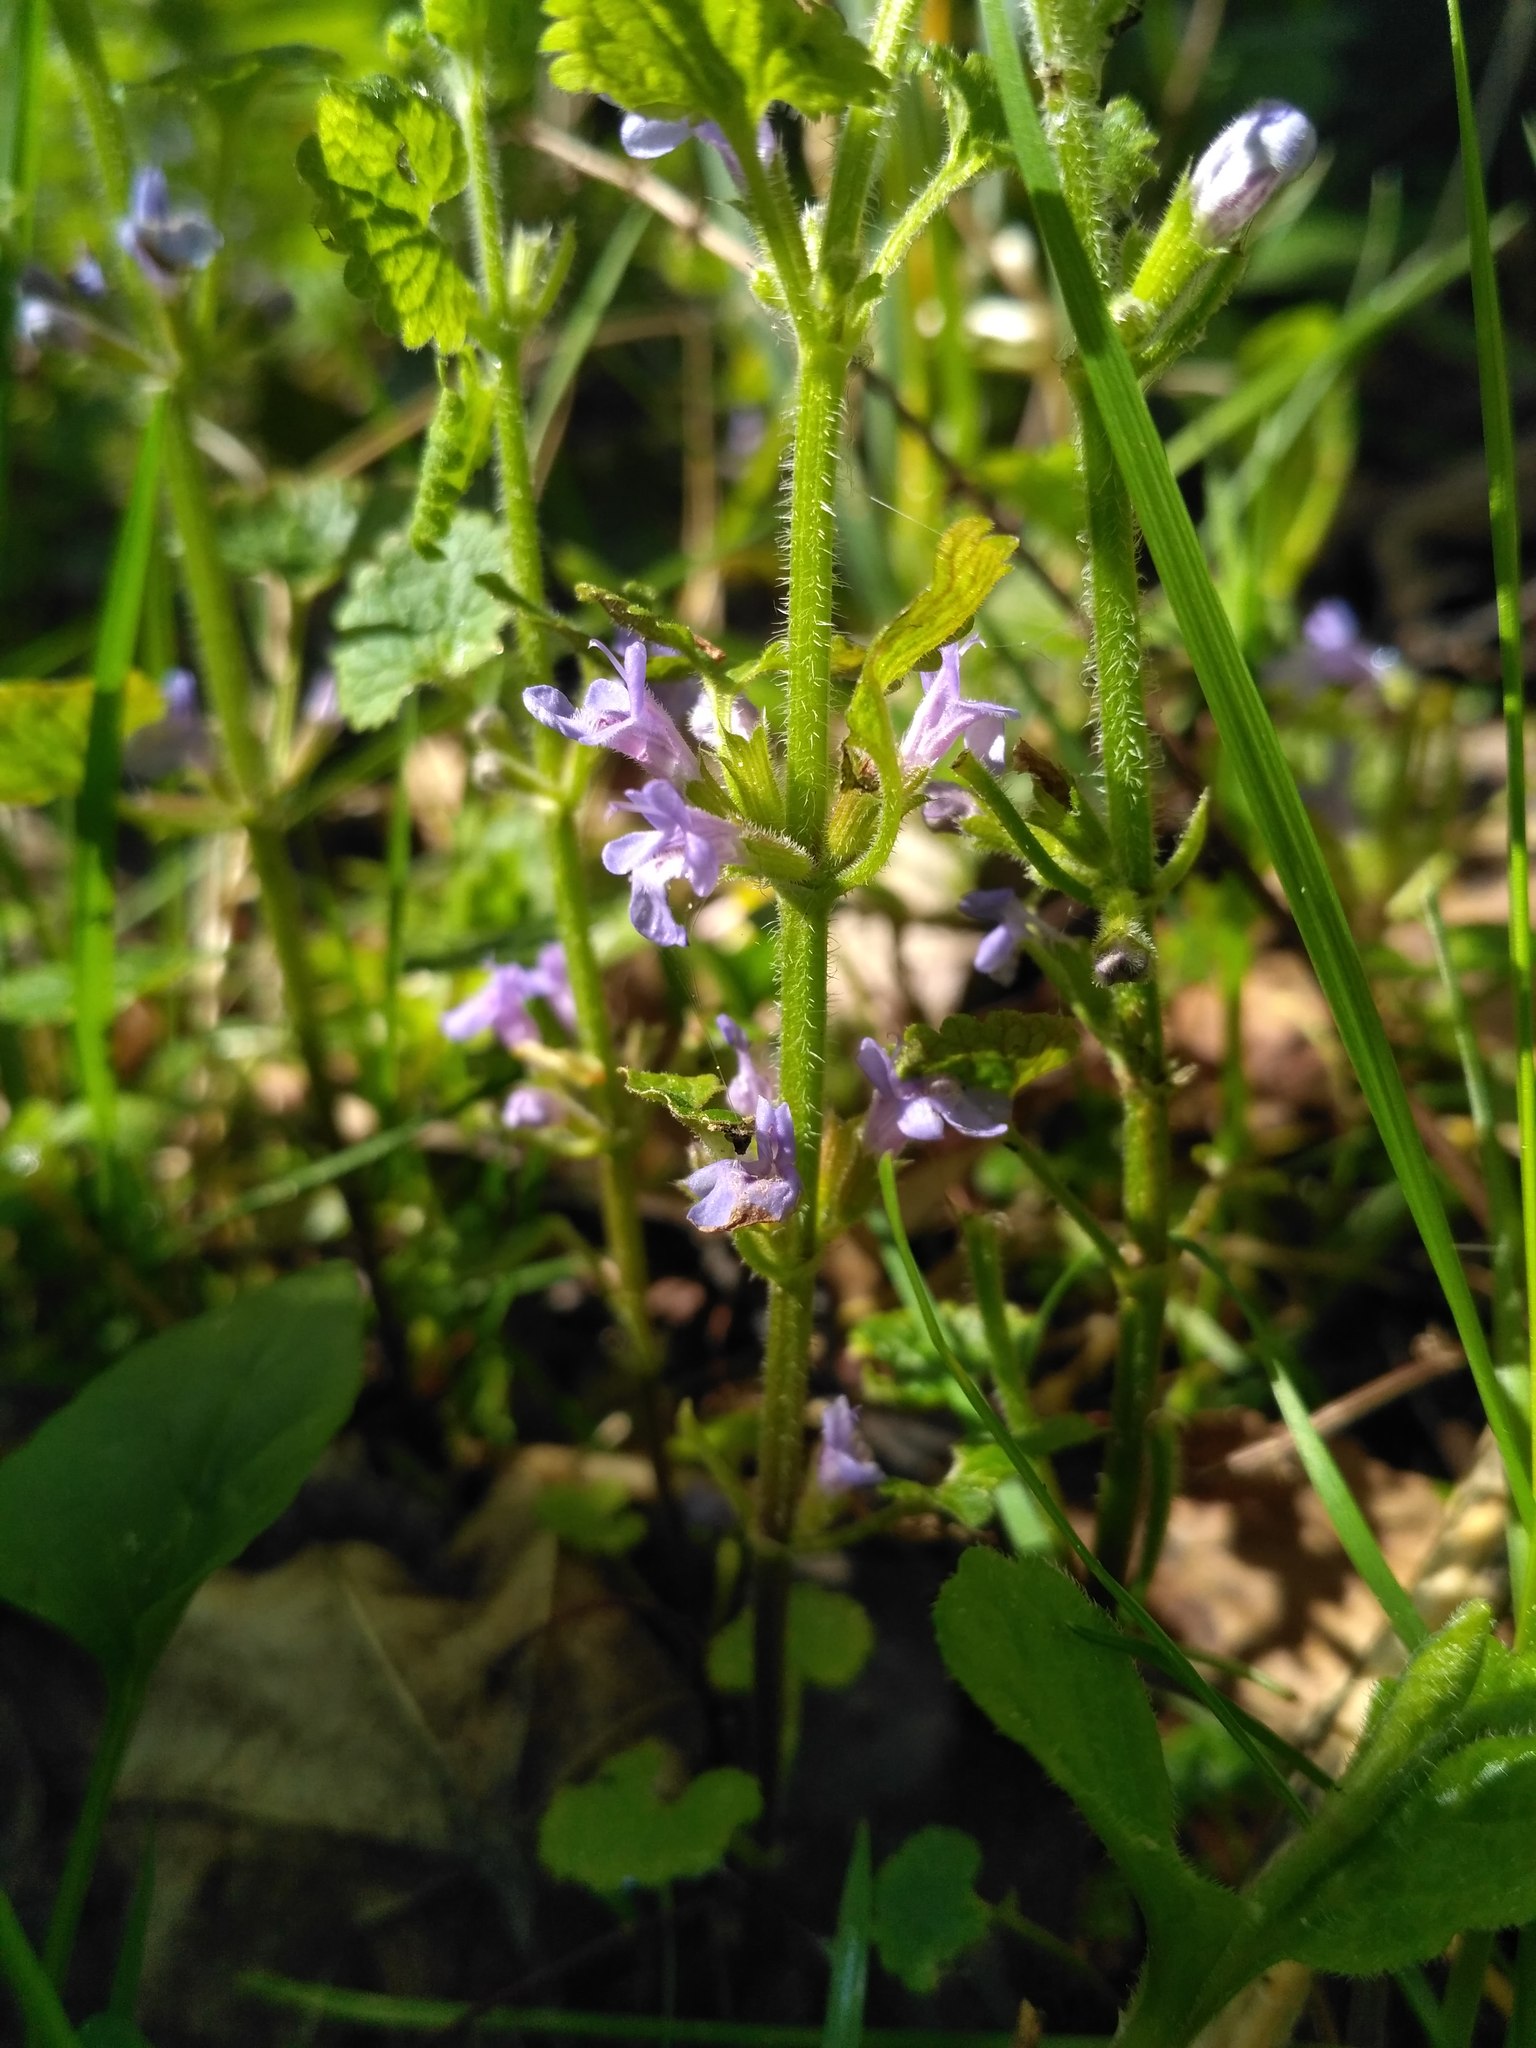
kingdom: Plantae
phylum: Tracheophyta
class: Magnoliopsida
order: Lamiales
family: Lamiaceae
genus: Glechoma
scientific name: Glechoma hederacea
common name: Ground ivy
